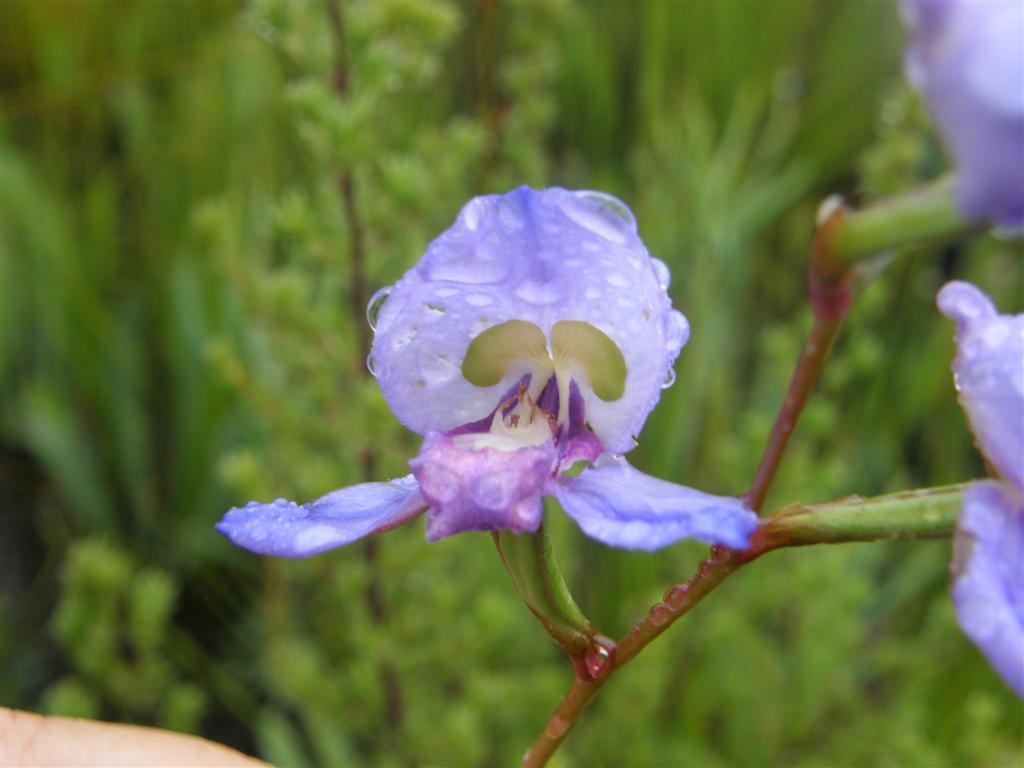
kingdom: Plantae
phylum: Tracheophyta
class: Liliopsida
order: Asparagales
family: Orchidaceae
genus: Disa
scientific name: Disa graminifolia
